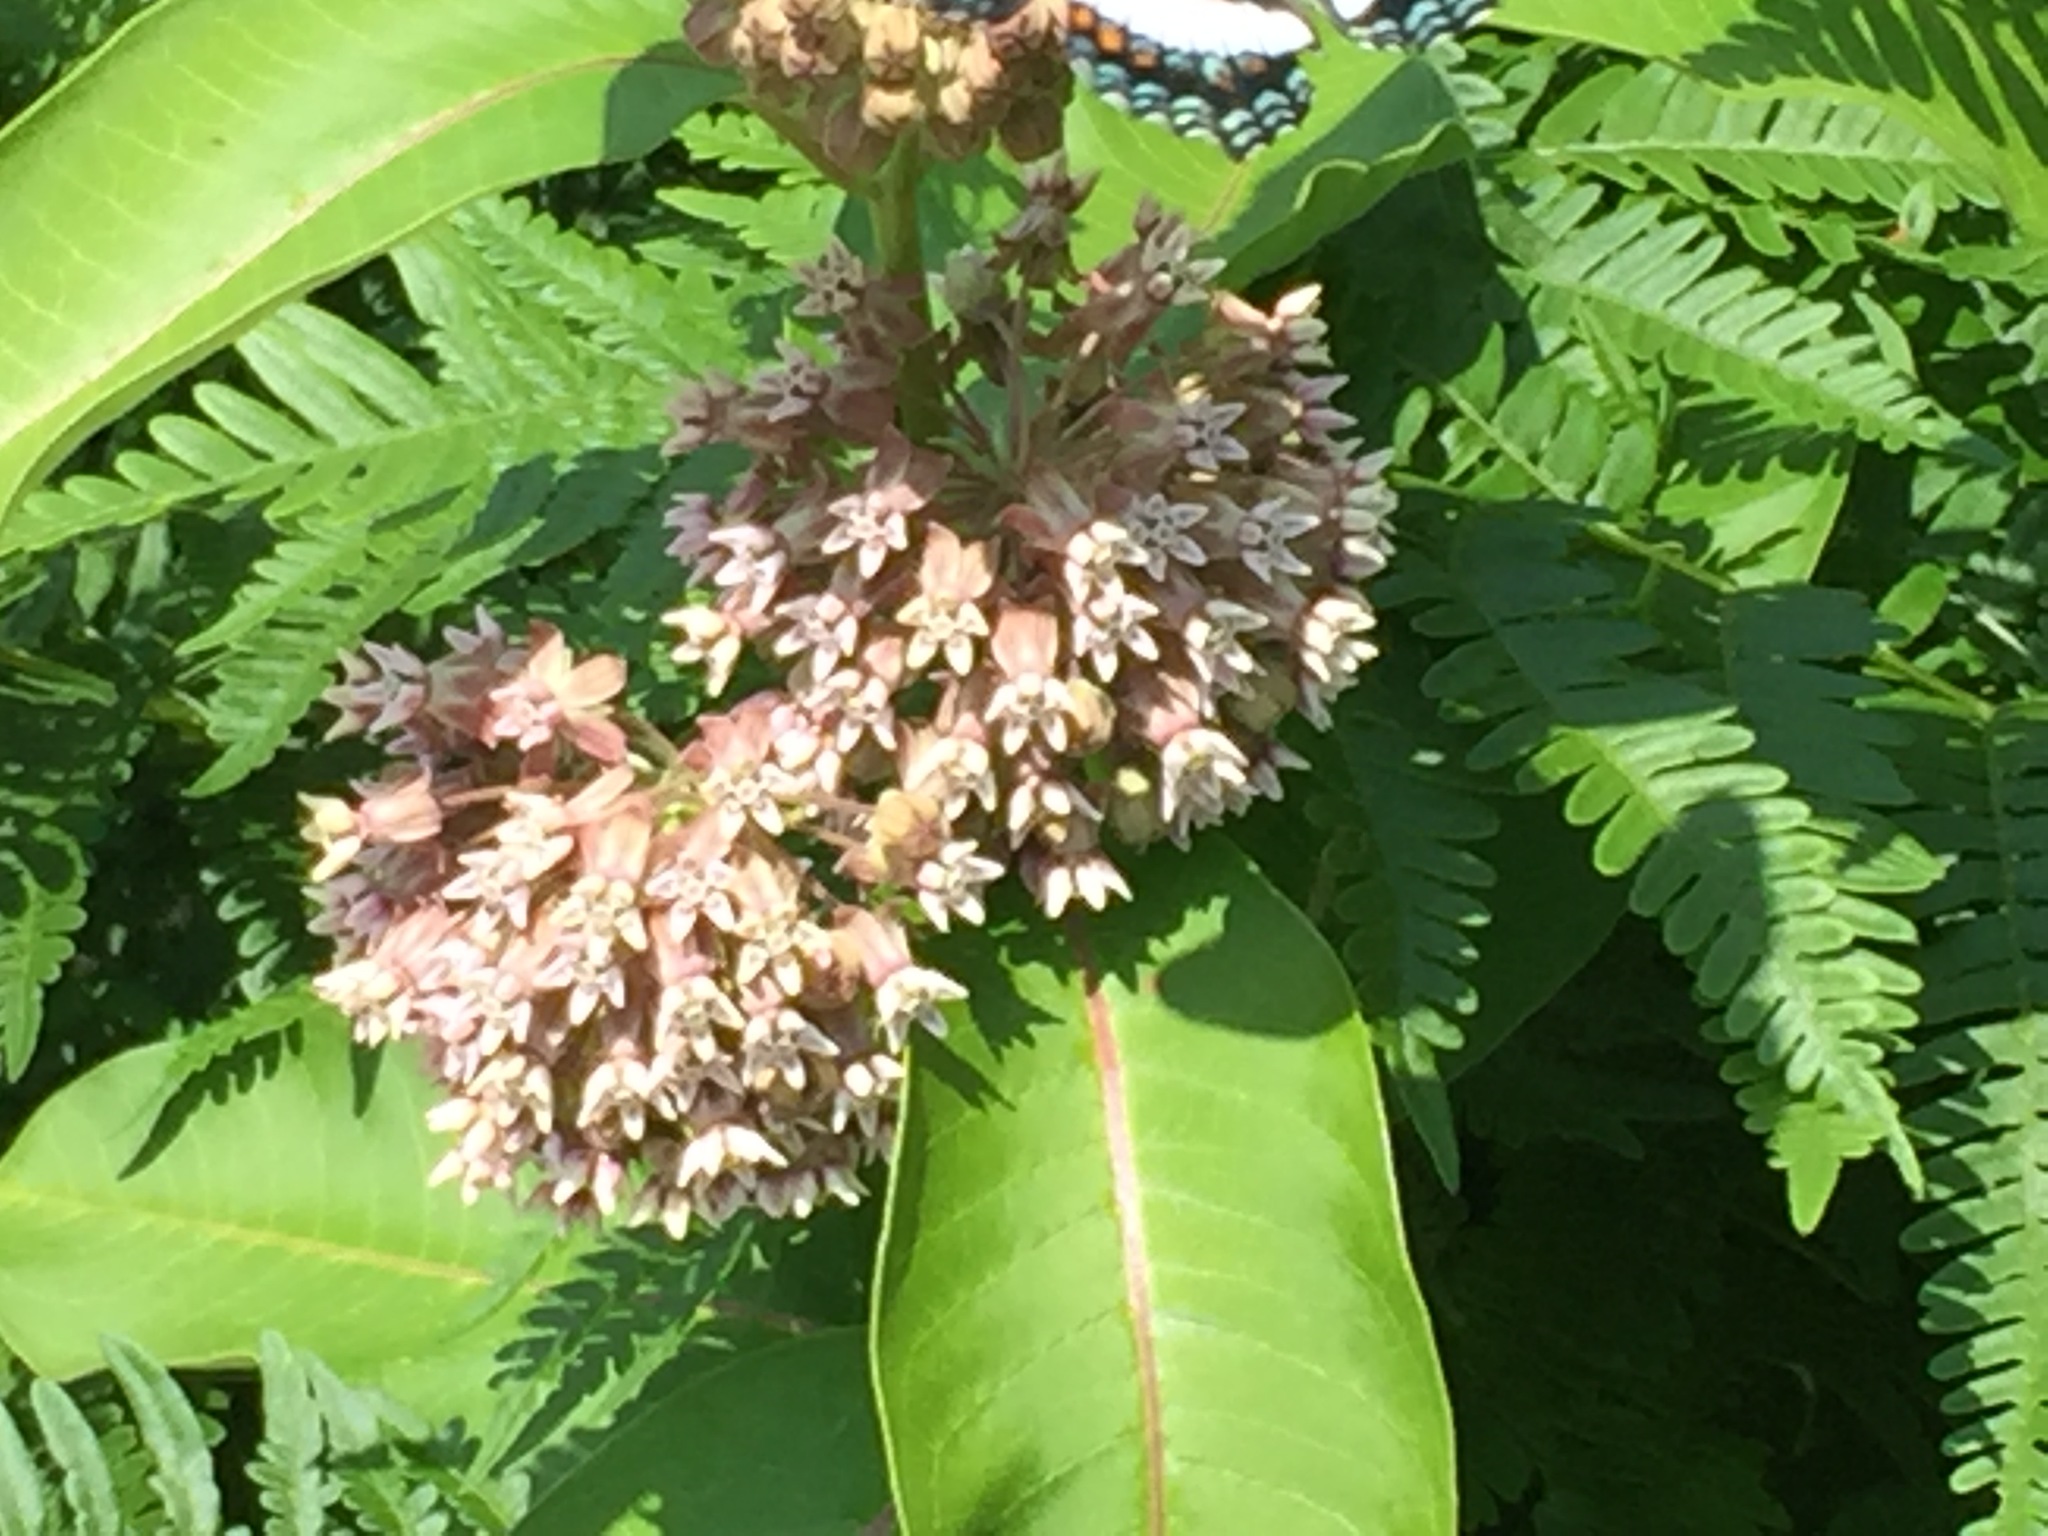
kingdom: Plantae
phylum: Tracheophyta
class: Magnoliopsida
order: Gentianales
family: Apocynaceae
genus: Asclepias
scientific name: Asclepias syriaca
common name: Common milkweed
